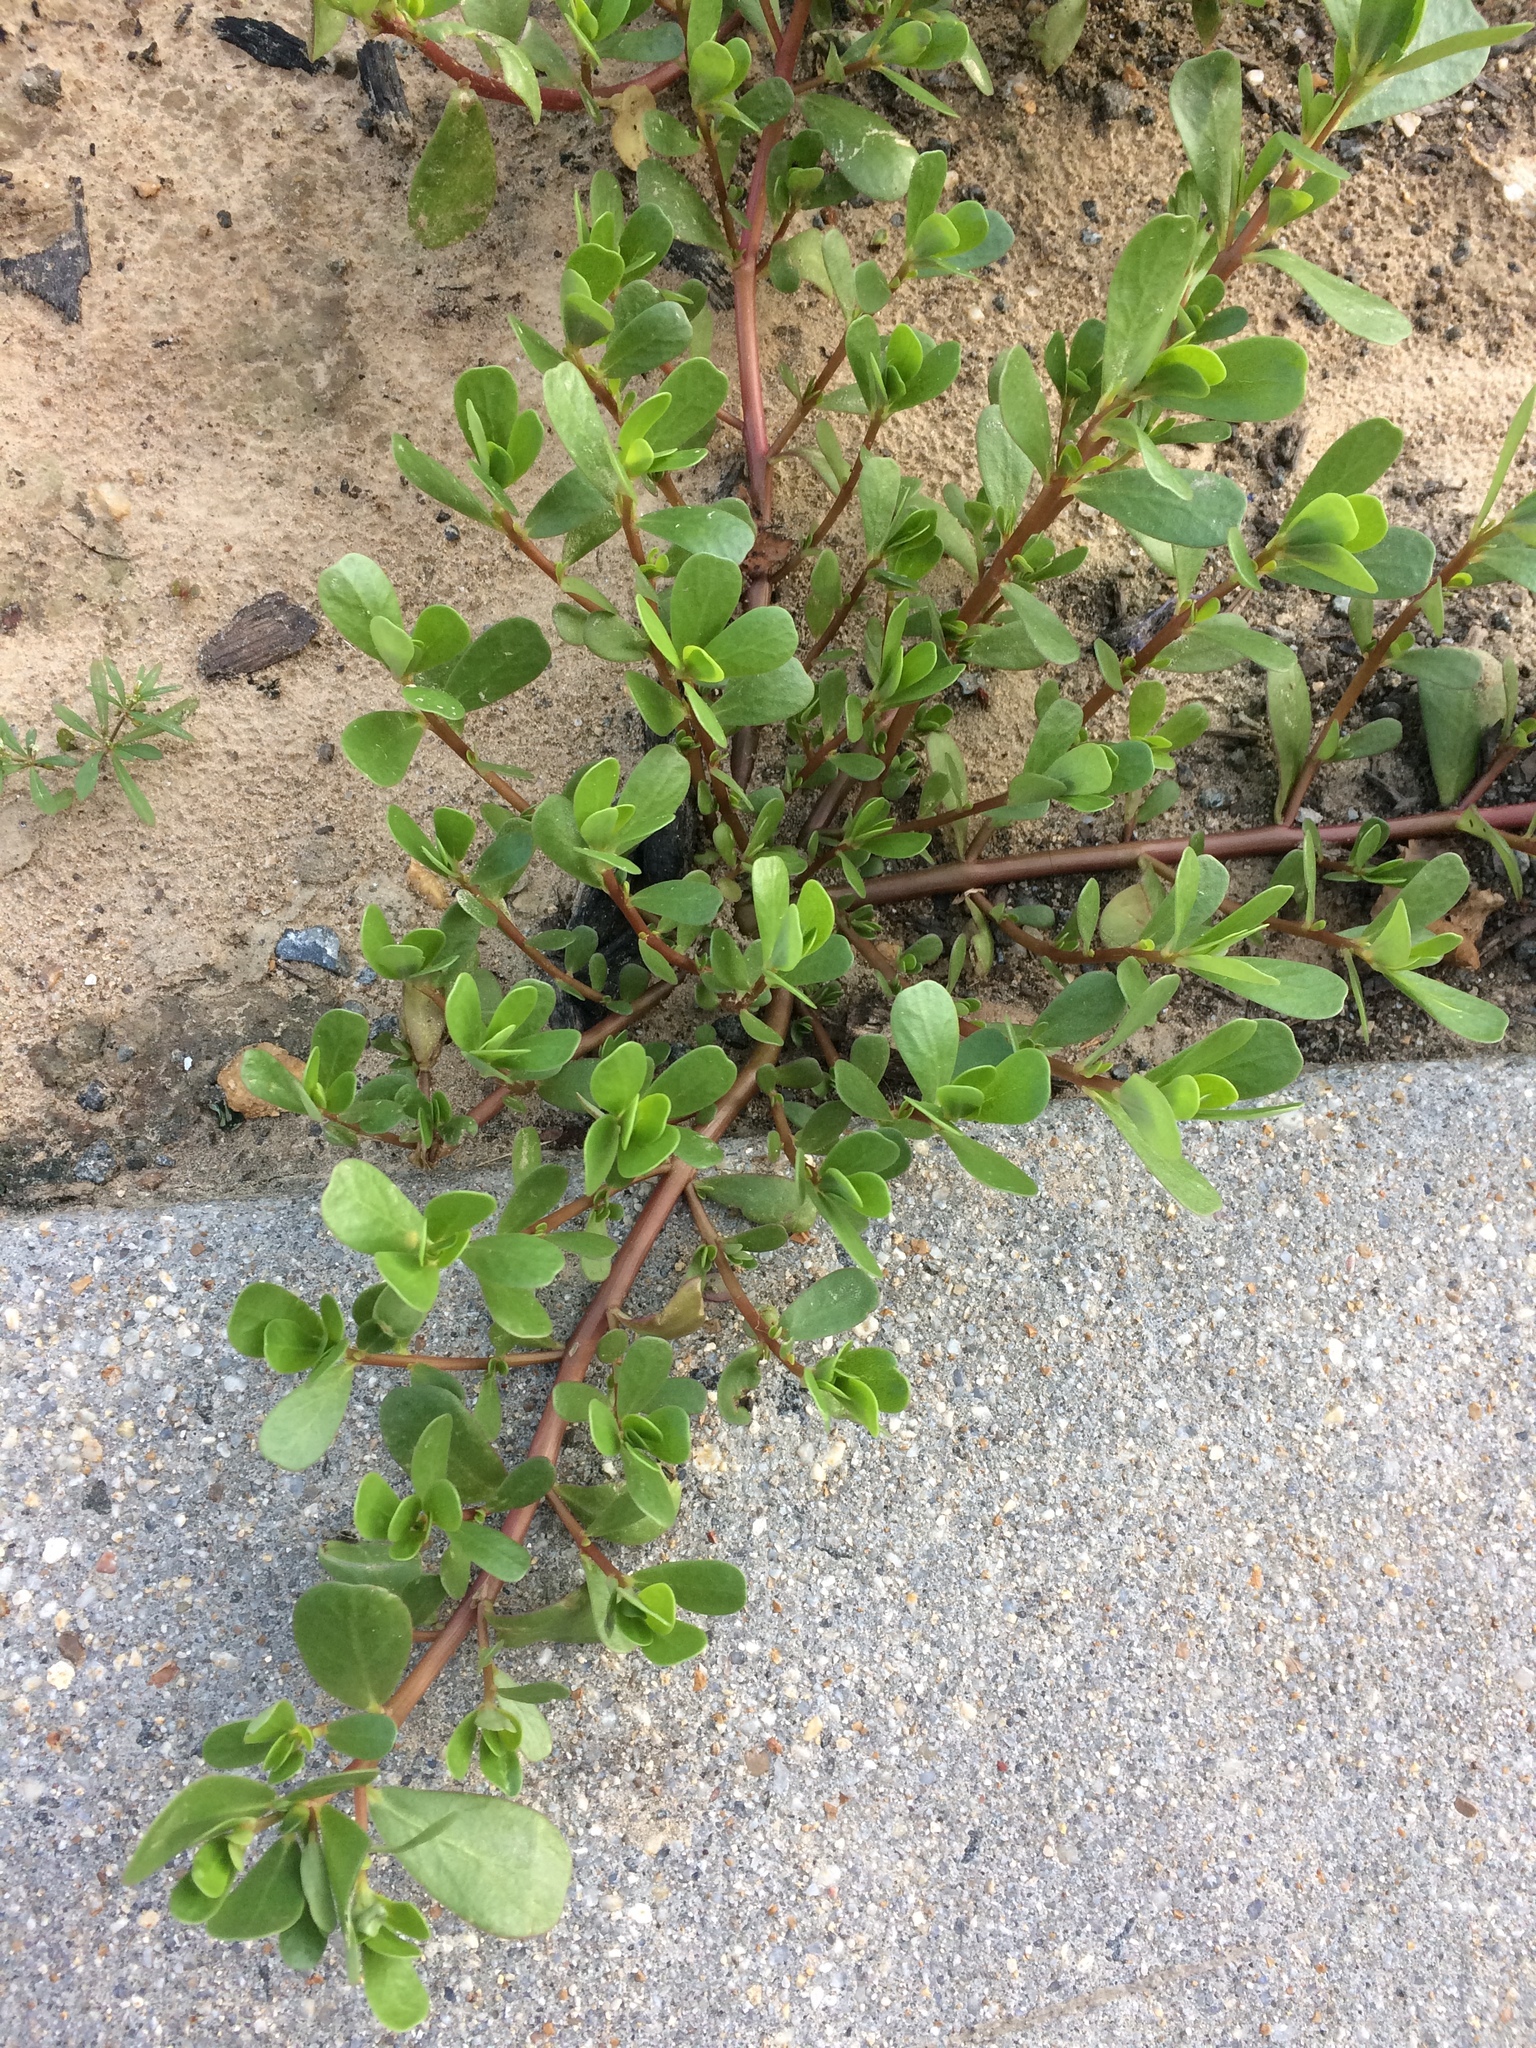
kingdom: Plantae
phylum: Tracheophyta
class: Magnoliopsida
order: Caryophyllales
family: Portulacaceae
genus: Portulaca
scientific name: Portulaca oleracea
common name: Common purslane
